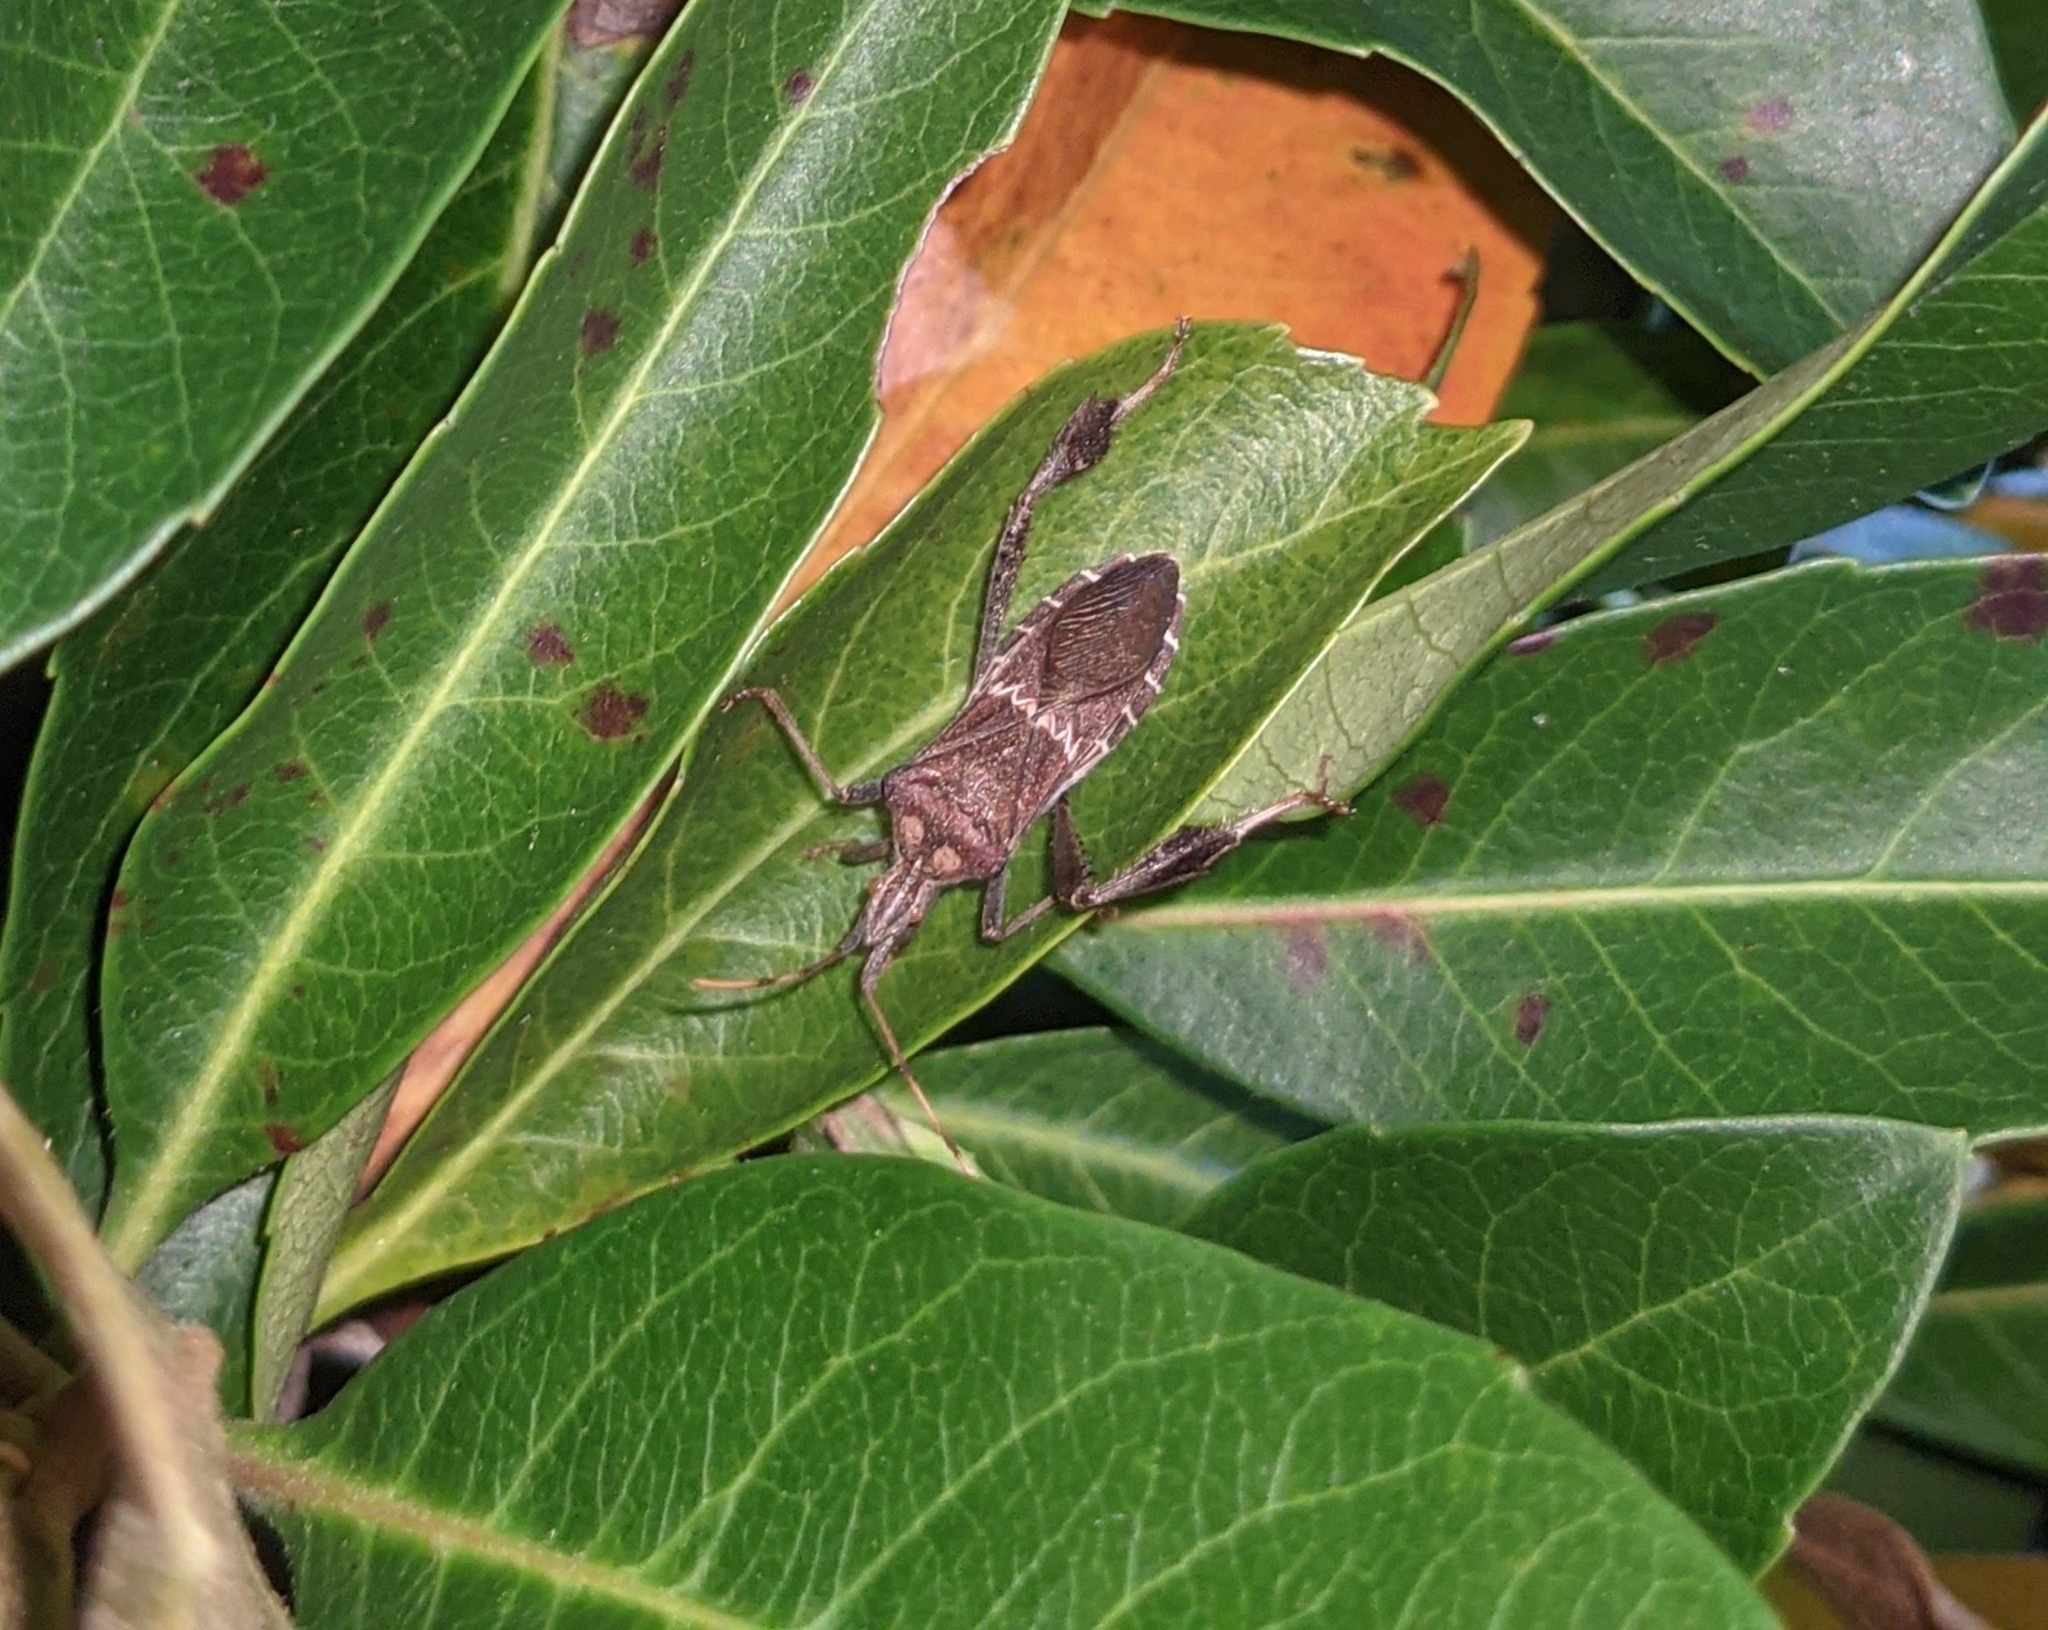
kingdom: Animalia
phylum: Arthropoda
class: Insecta
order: Hemiptera
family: Coreidae
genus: Leptoglossus
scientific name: Leptoglossus zonatus
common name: Large-legged bug
